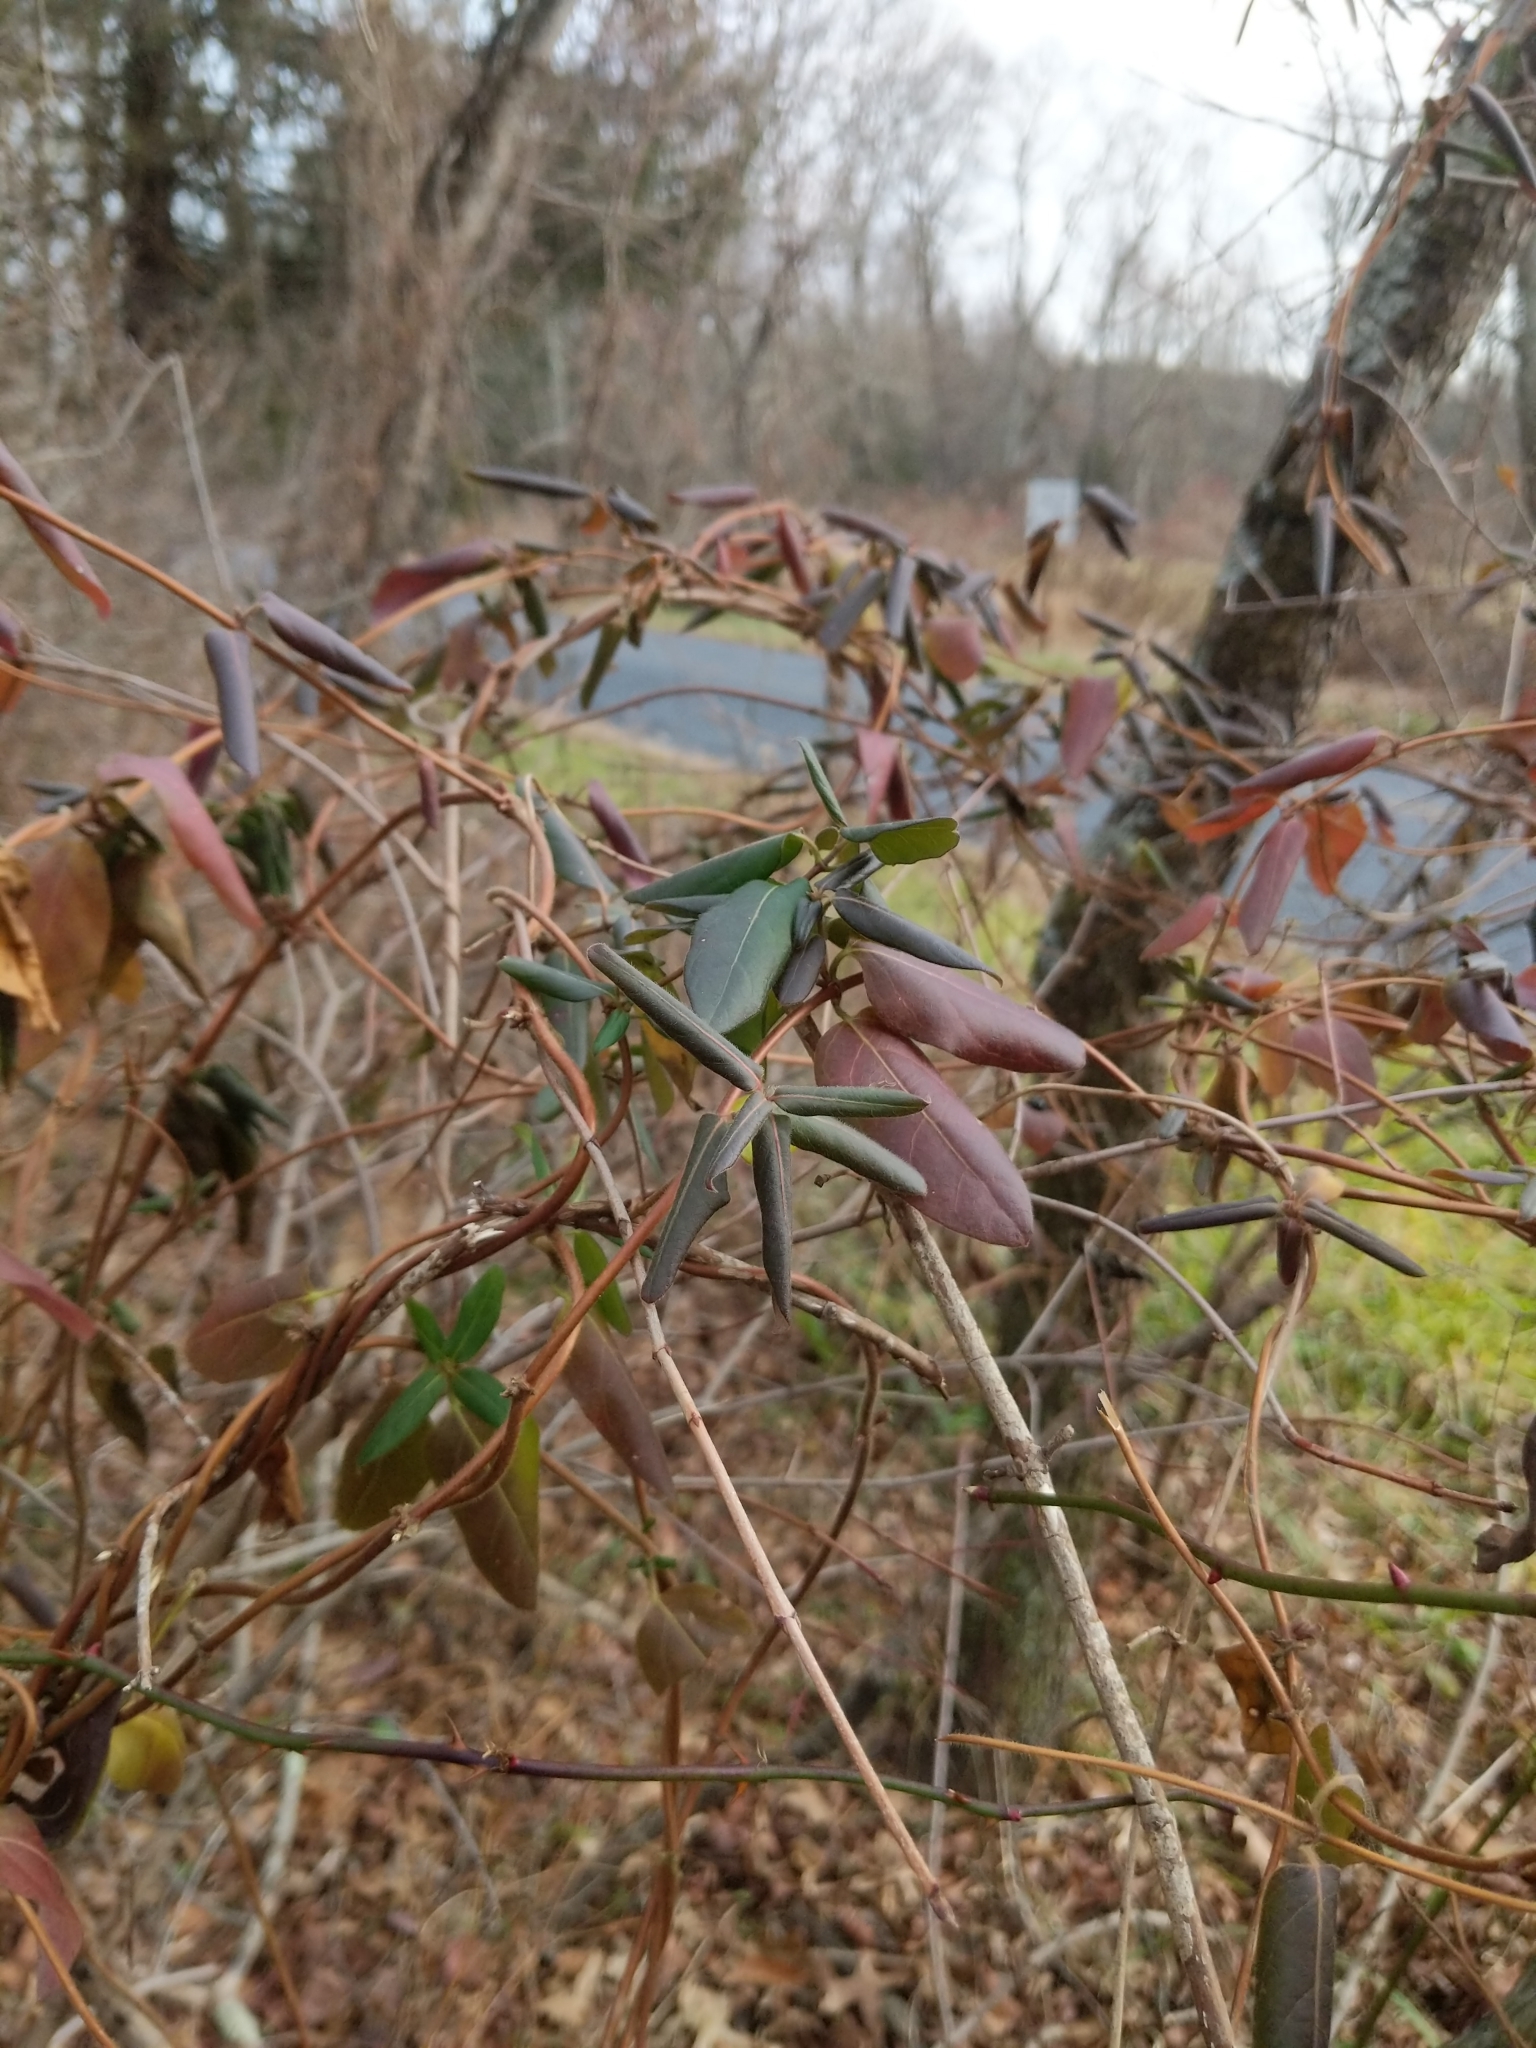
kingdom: Plantae
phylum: Tracheophyta
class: Magnoliopsida
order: Dipsacales
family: Caprifoliaceae
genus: Lonicera
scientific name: Lonicera japonica
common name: Japanese honeysuckle
